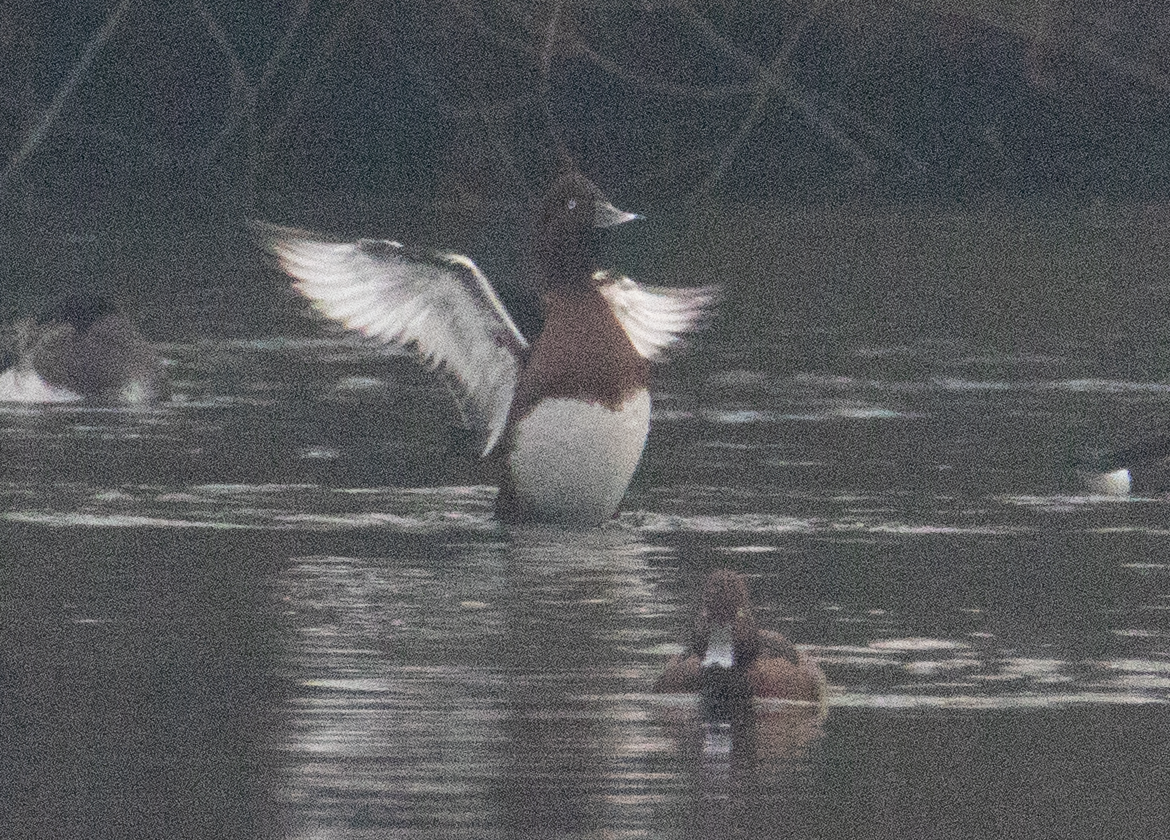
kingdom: Animalia
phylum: Chordata
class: Aves
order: Anseriformes
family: Anatidae
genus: Aythya
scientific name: Aythya nyroca
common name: Ferruginous duck
